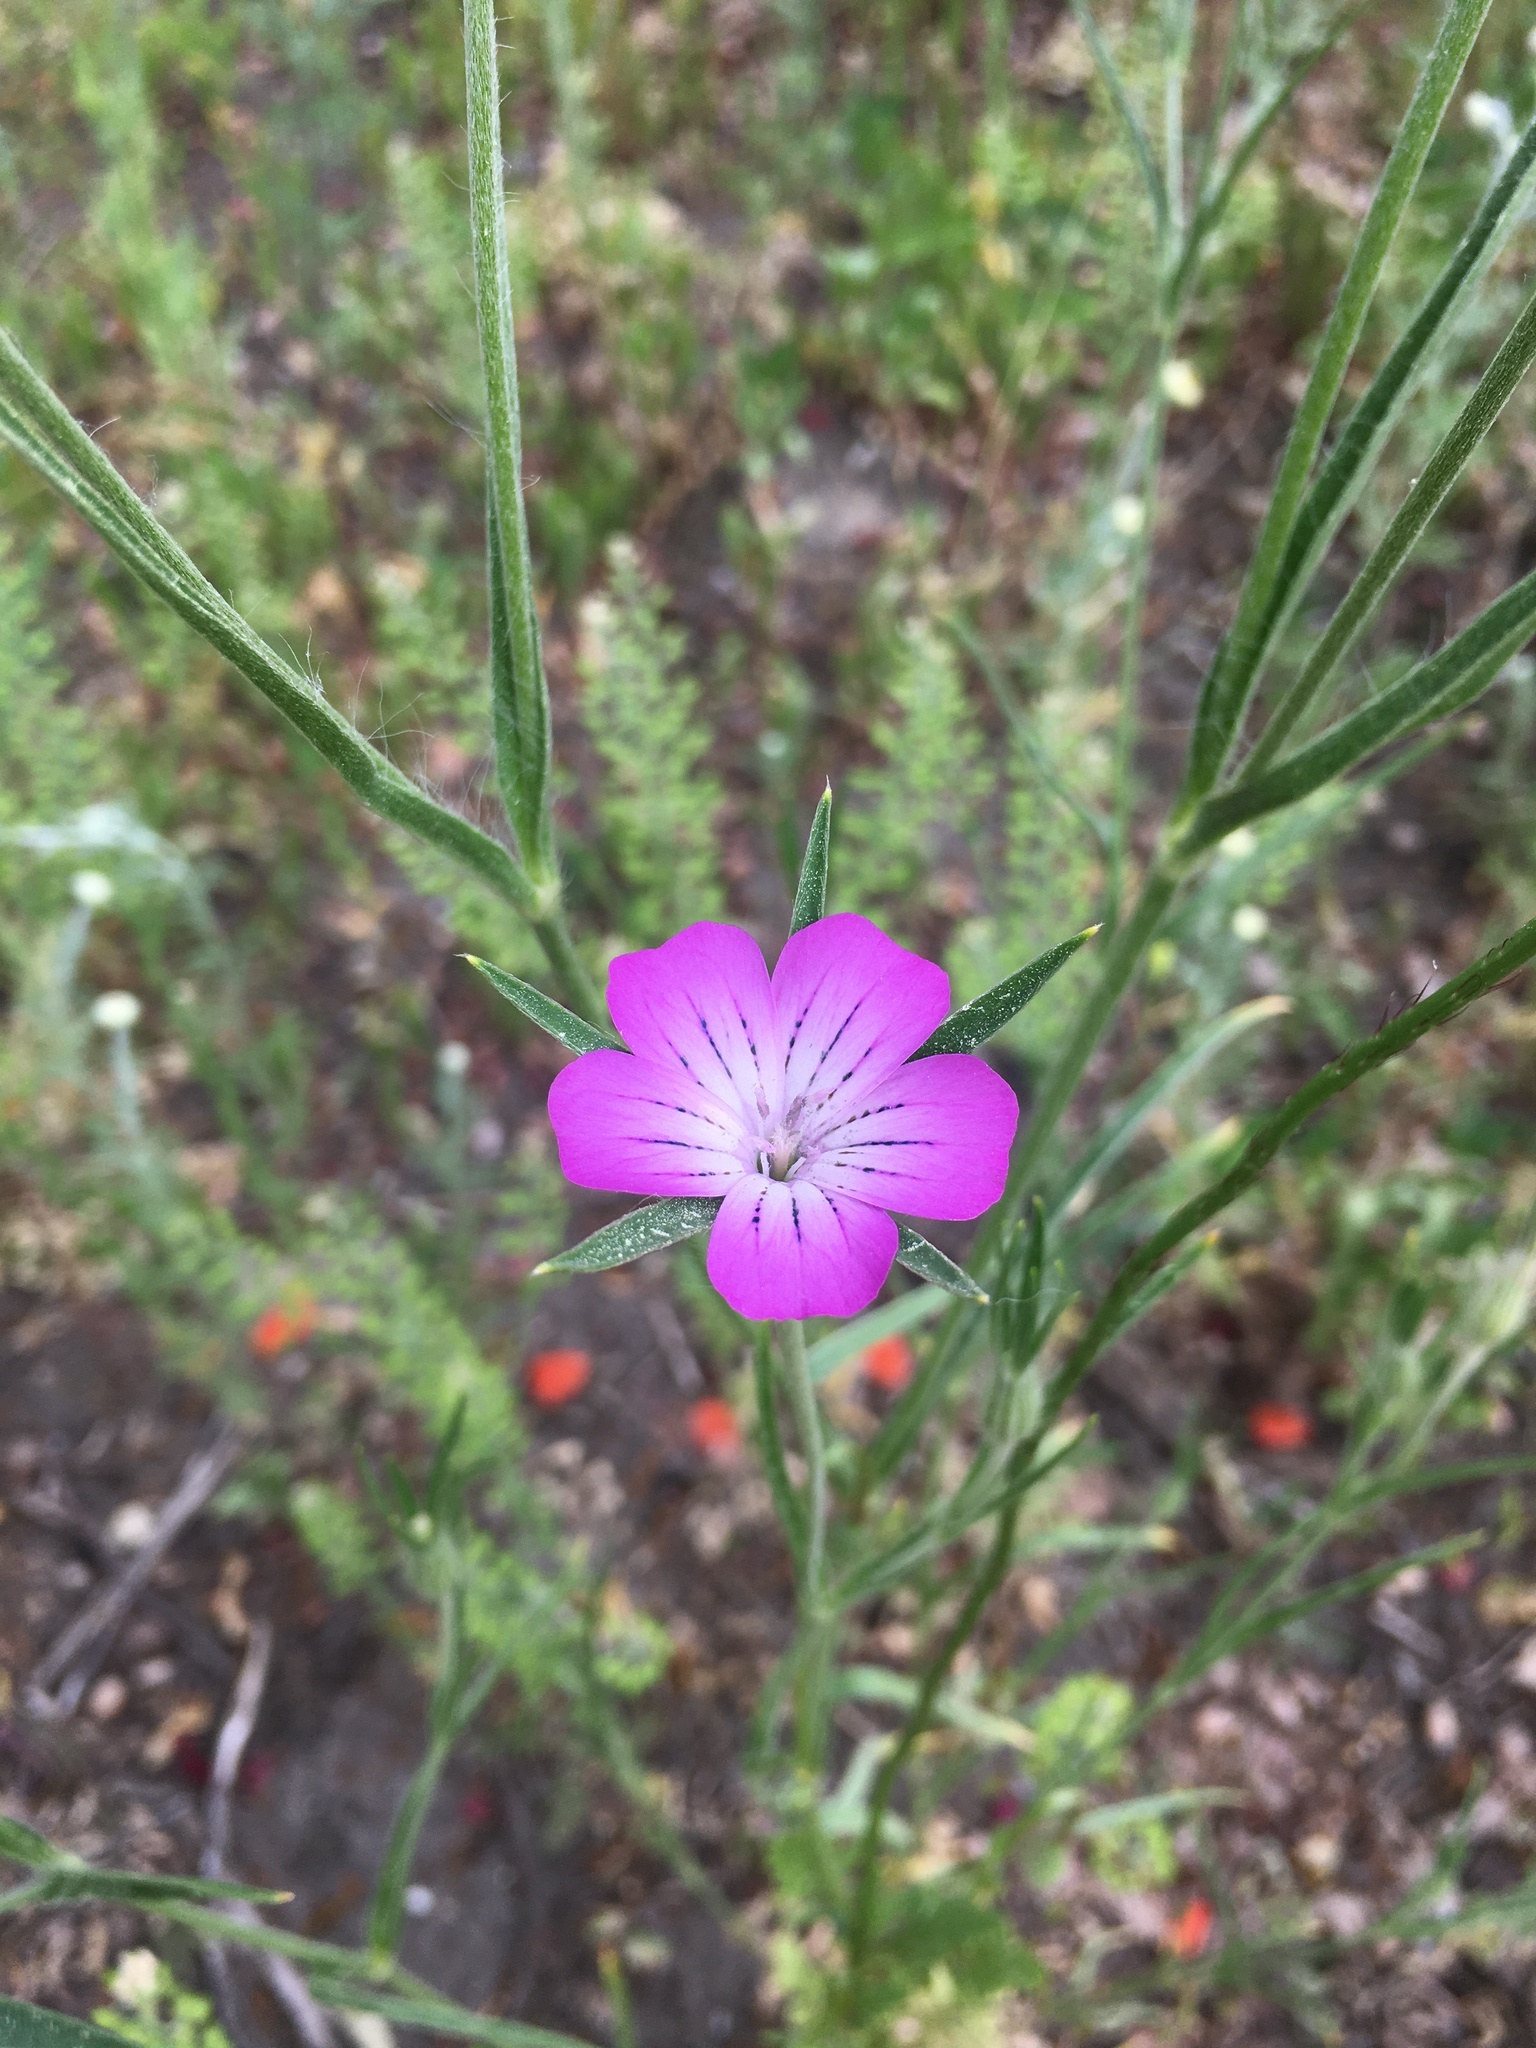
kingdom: Plantae
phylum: Tracheophyta
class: Magnoliopsida
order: Caryophyllales
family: Caryophyllaceae
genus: Agrostemma
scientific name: Agrostemma githago
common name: Common corncockle
